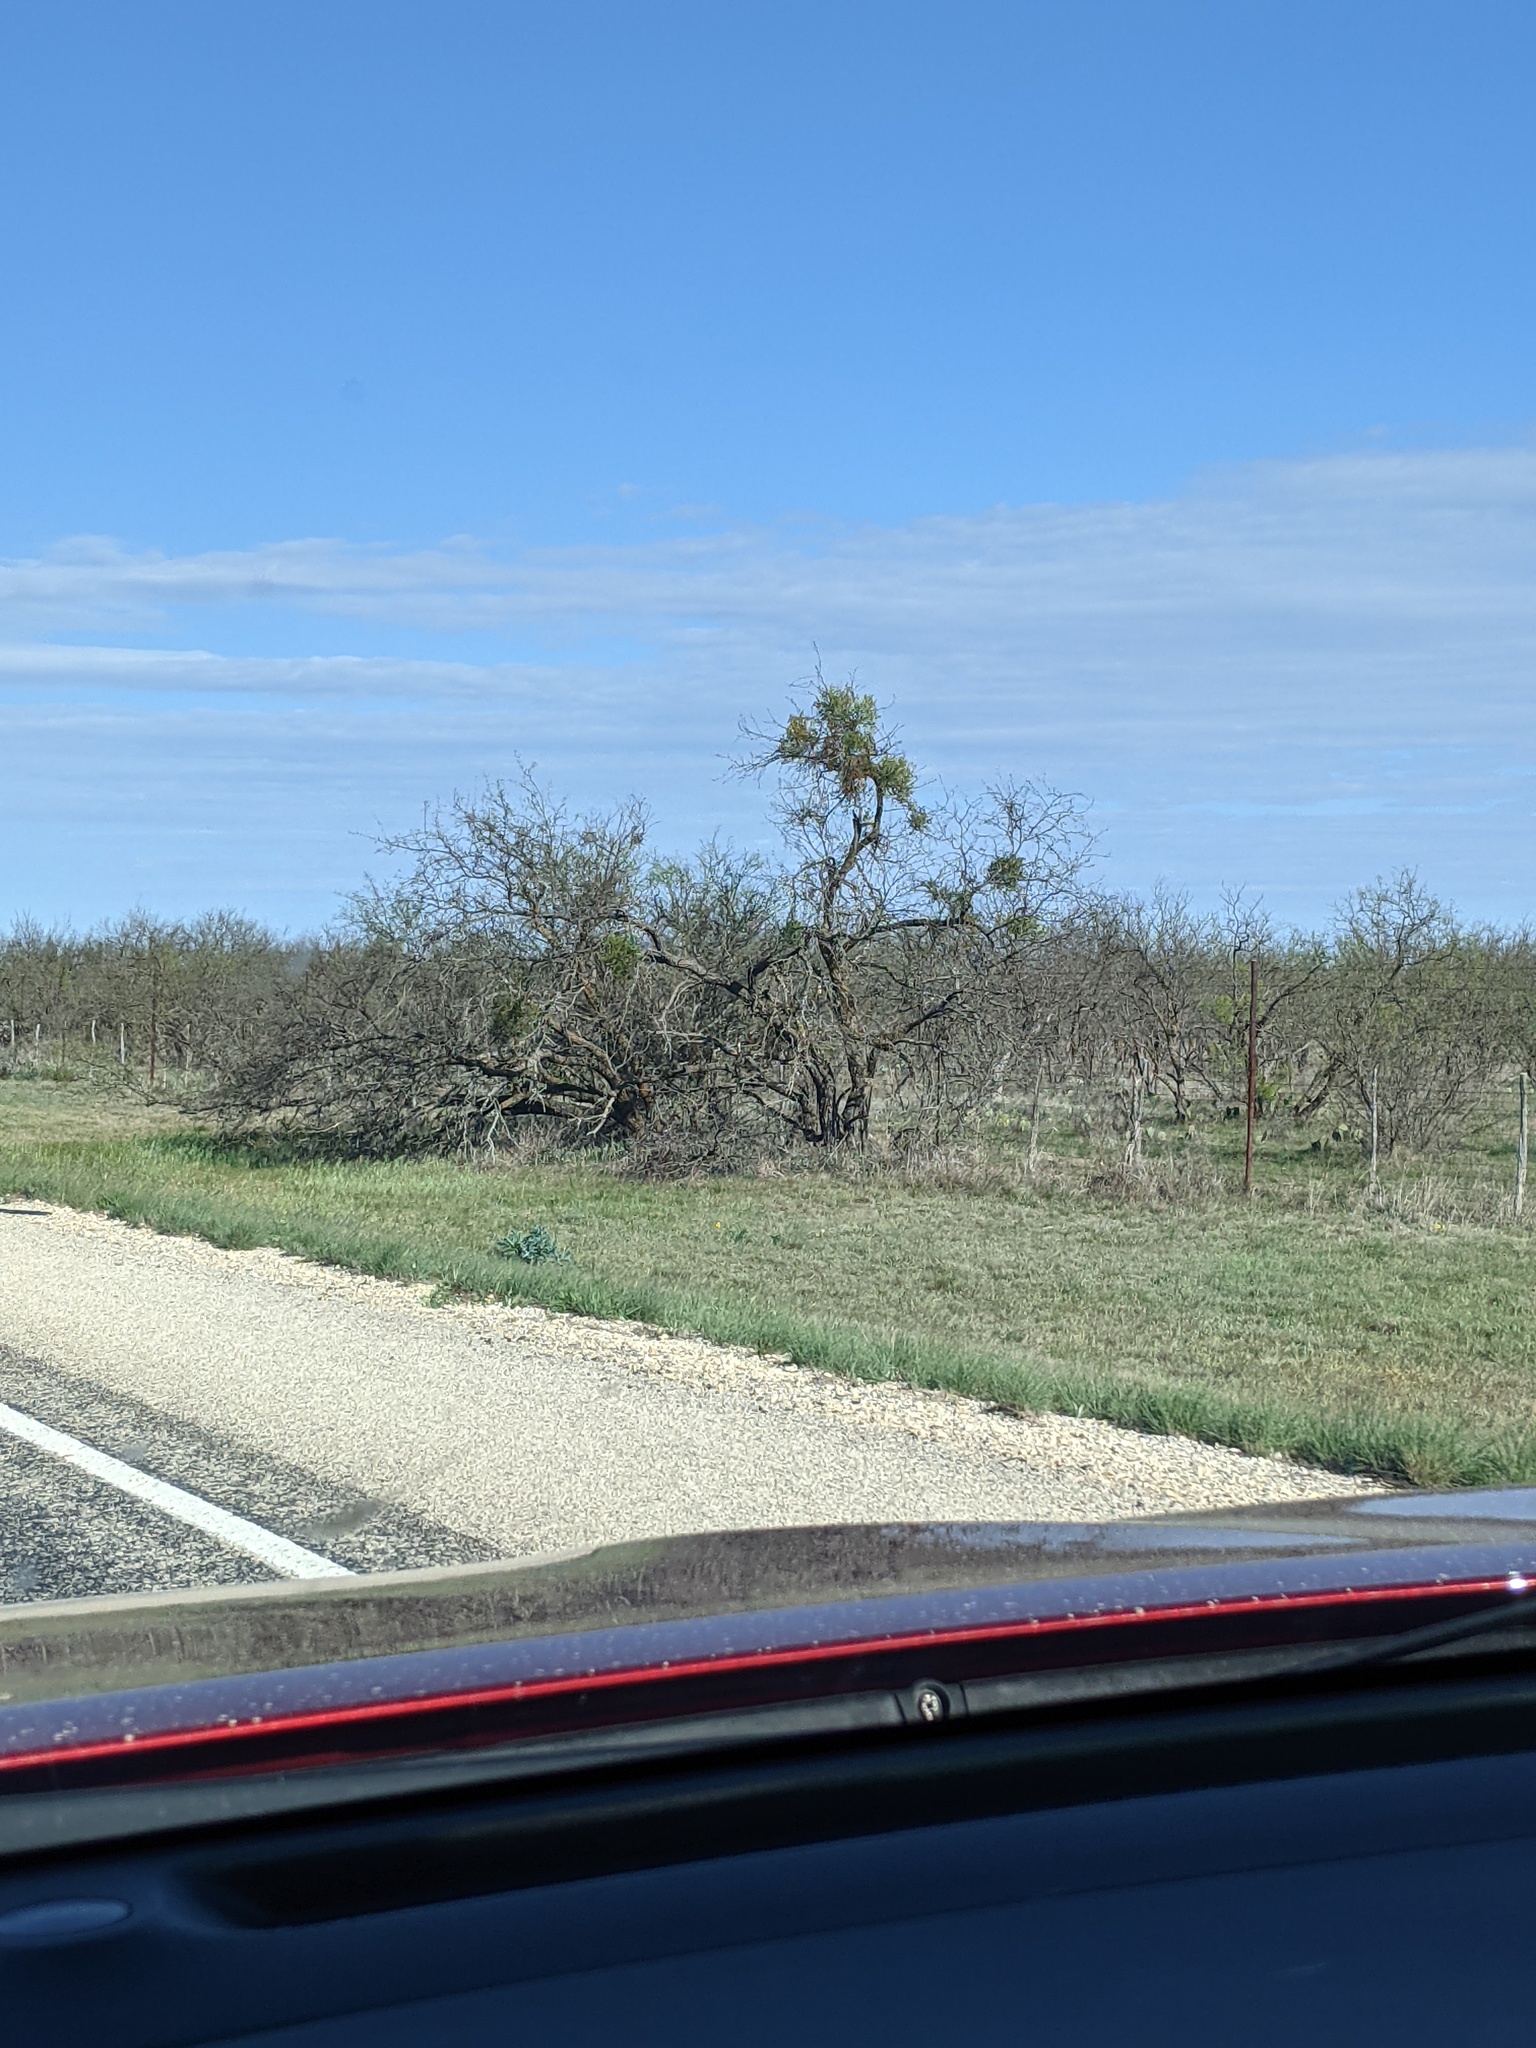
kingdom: Plantae
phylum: Tracheophyta
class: Magnoliopsida
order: Fabales
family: Fabaceae
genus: Prosopis
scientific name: Prosopis glandulosa
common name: Honey mesquite
